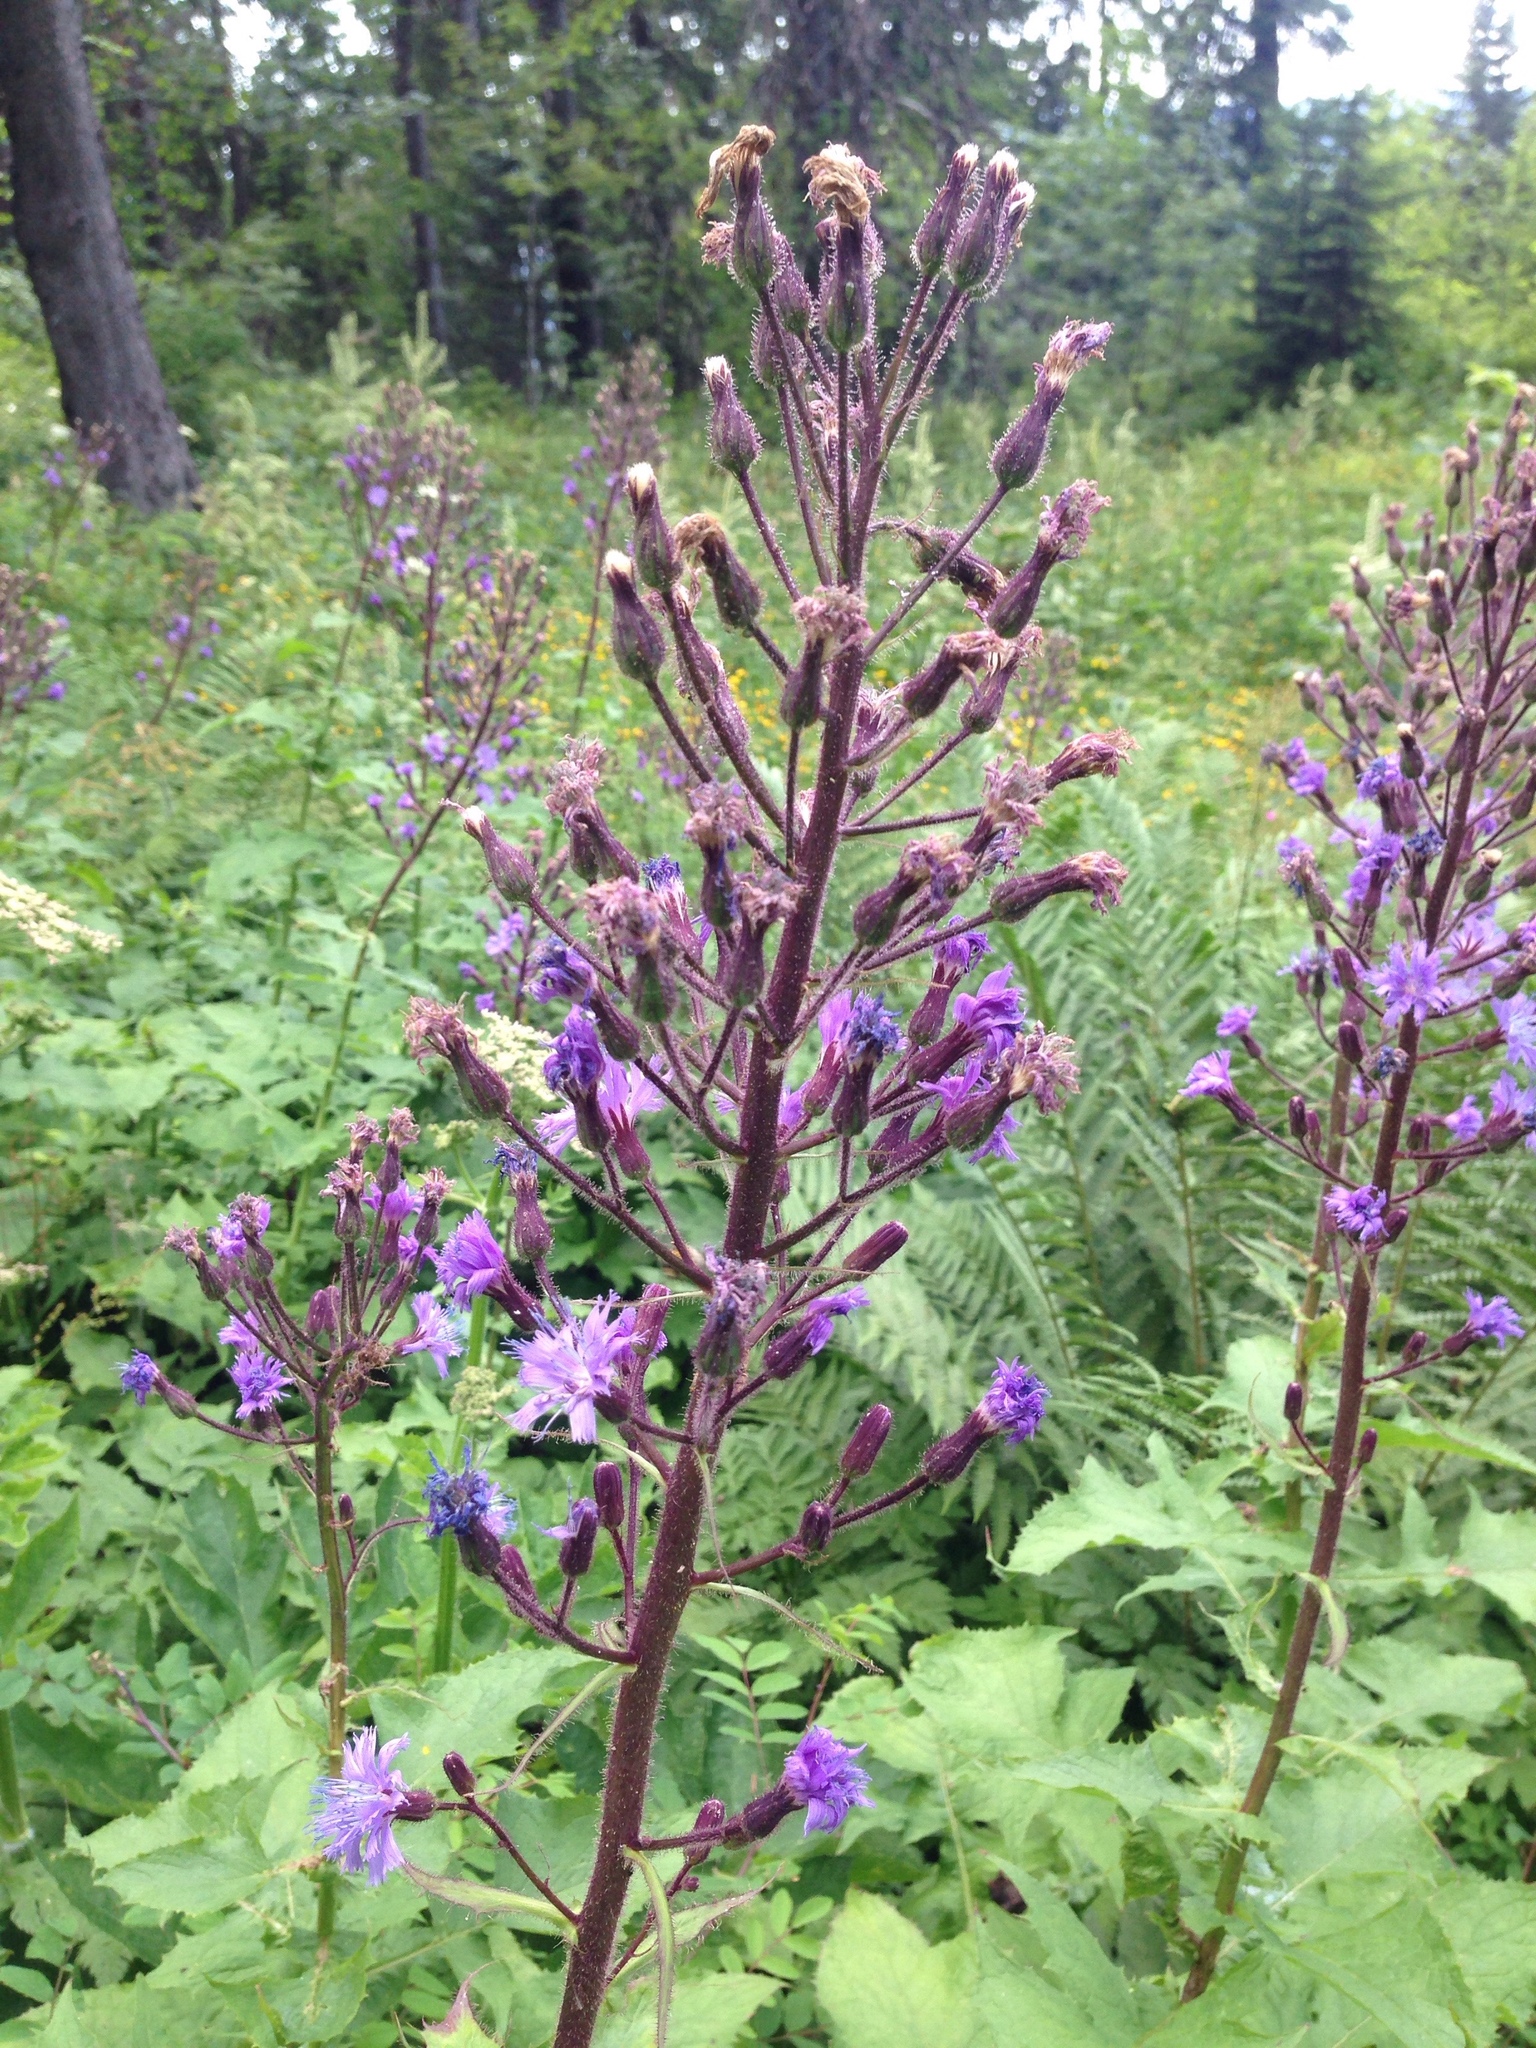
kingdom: Plantae
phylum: Tracheophyta
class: Magnoliopsida
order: Asterales
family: Asteraceae
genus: Cicerbita
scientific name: Cicerbita alpina
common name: Alpine blue-sow-thistle
